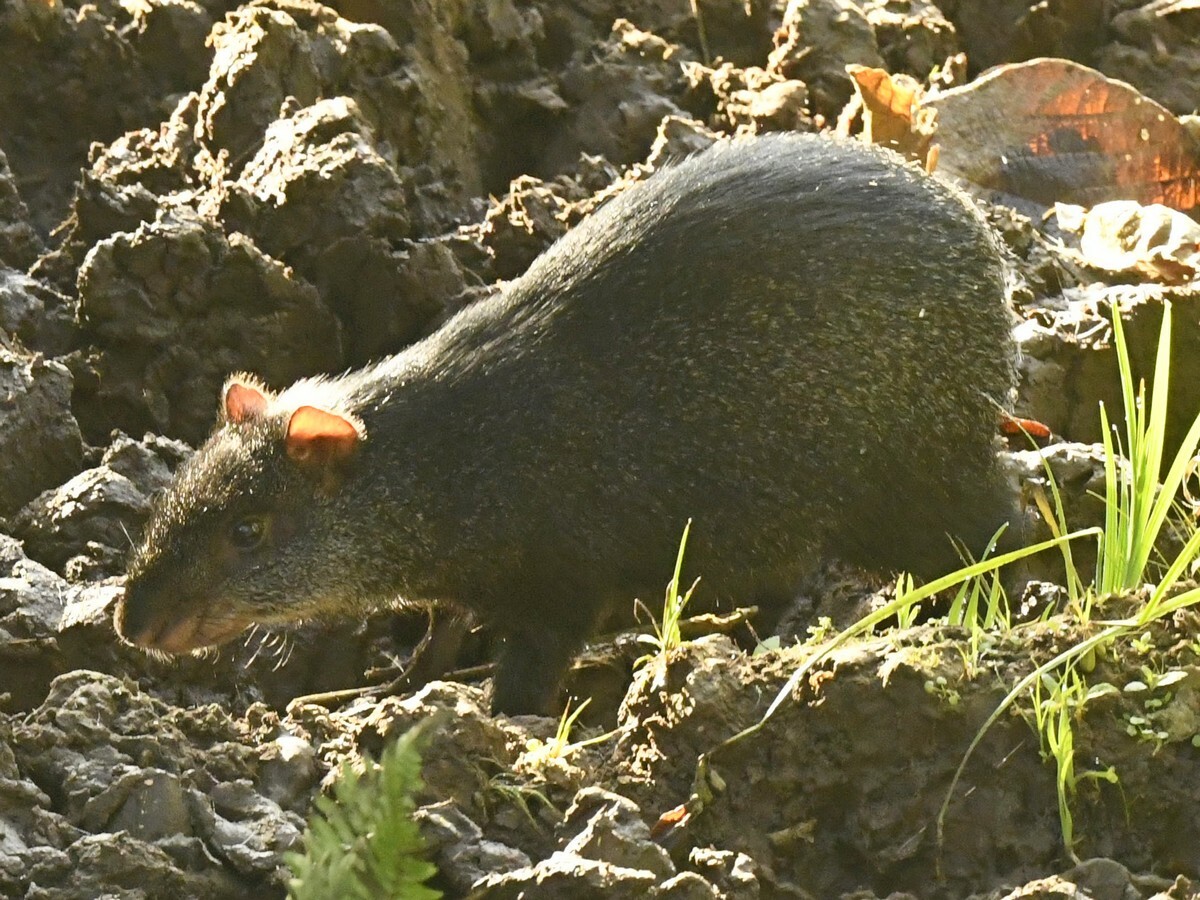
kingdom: Animalia
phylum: Chordata
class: Mammalia
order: Rodentia
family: Dasyproctidae
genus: Dasyprocta
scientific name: Dasyprocta fuliginosa
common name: Black agouti
